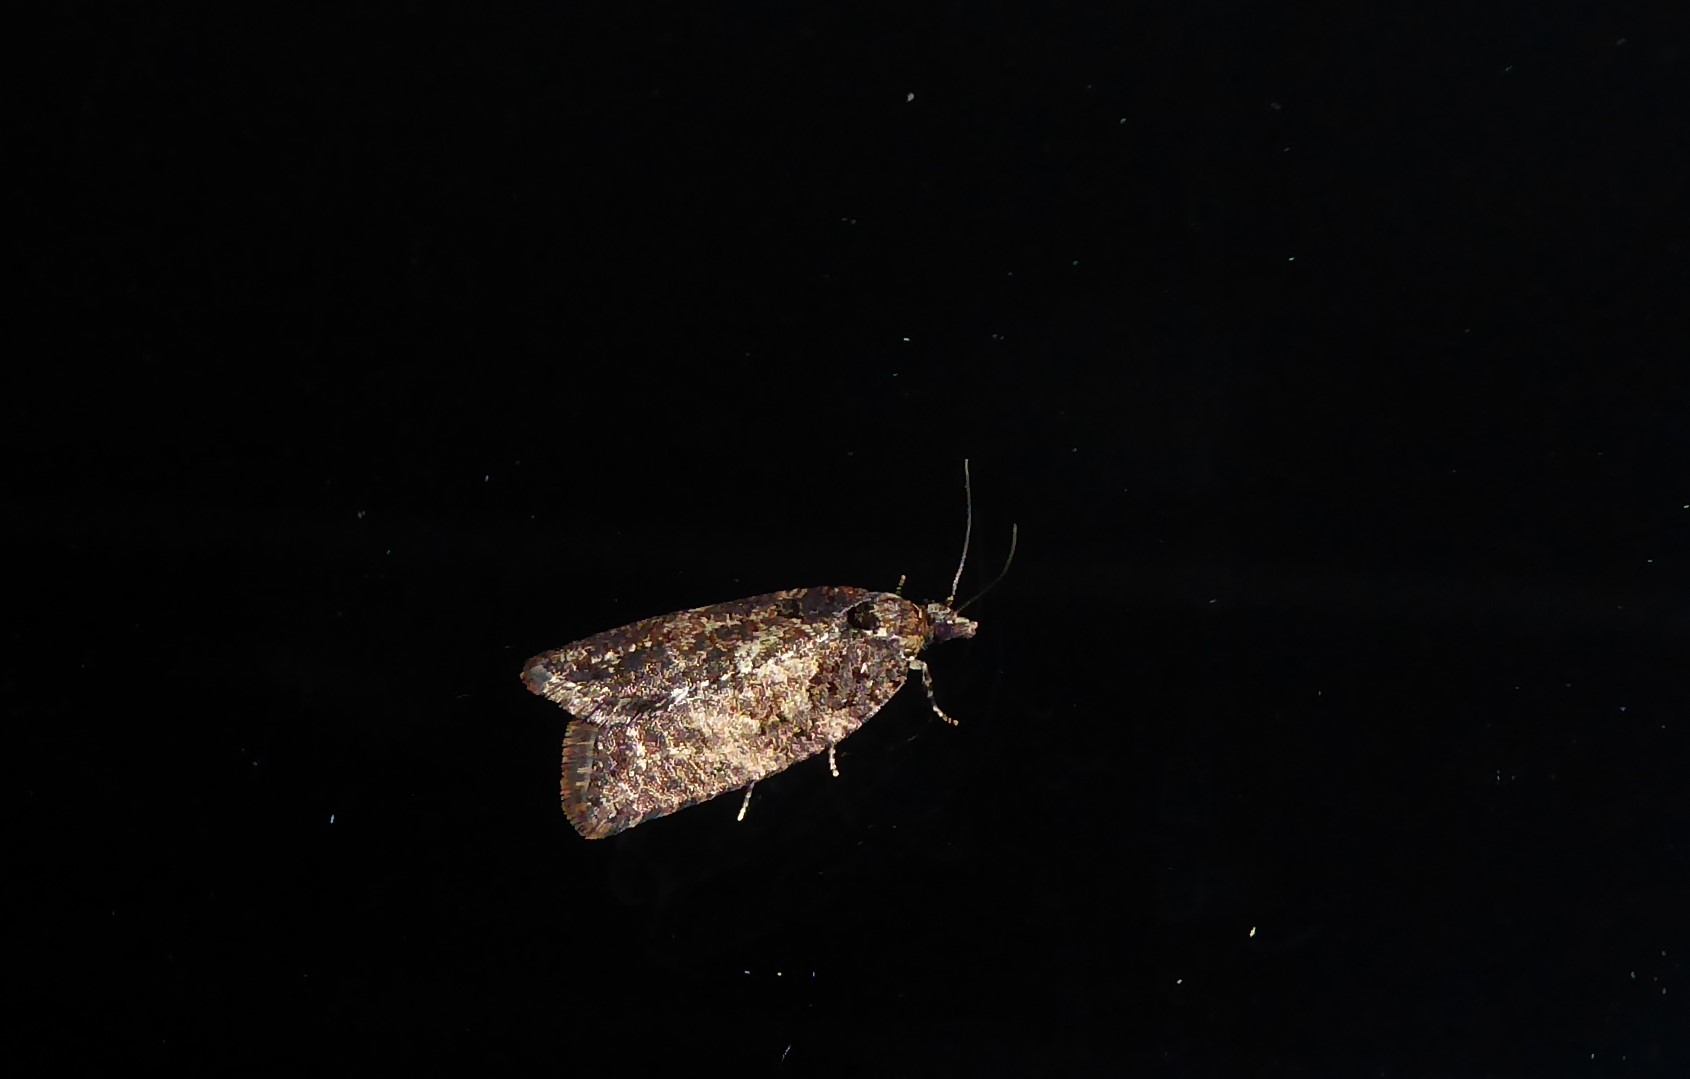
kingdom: Animalia
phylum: Arthropoda
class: Insecta
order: Lepidoptera
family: Tortricidae
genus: Capua
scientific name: Capua intractana
